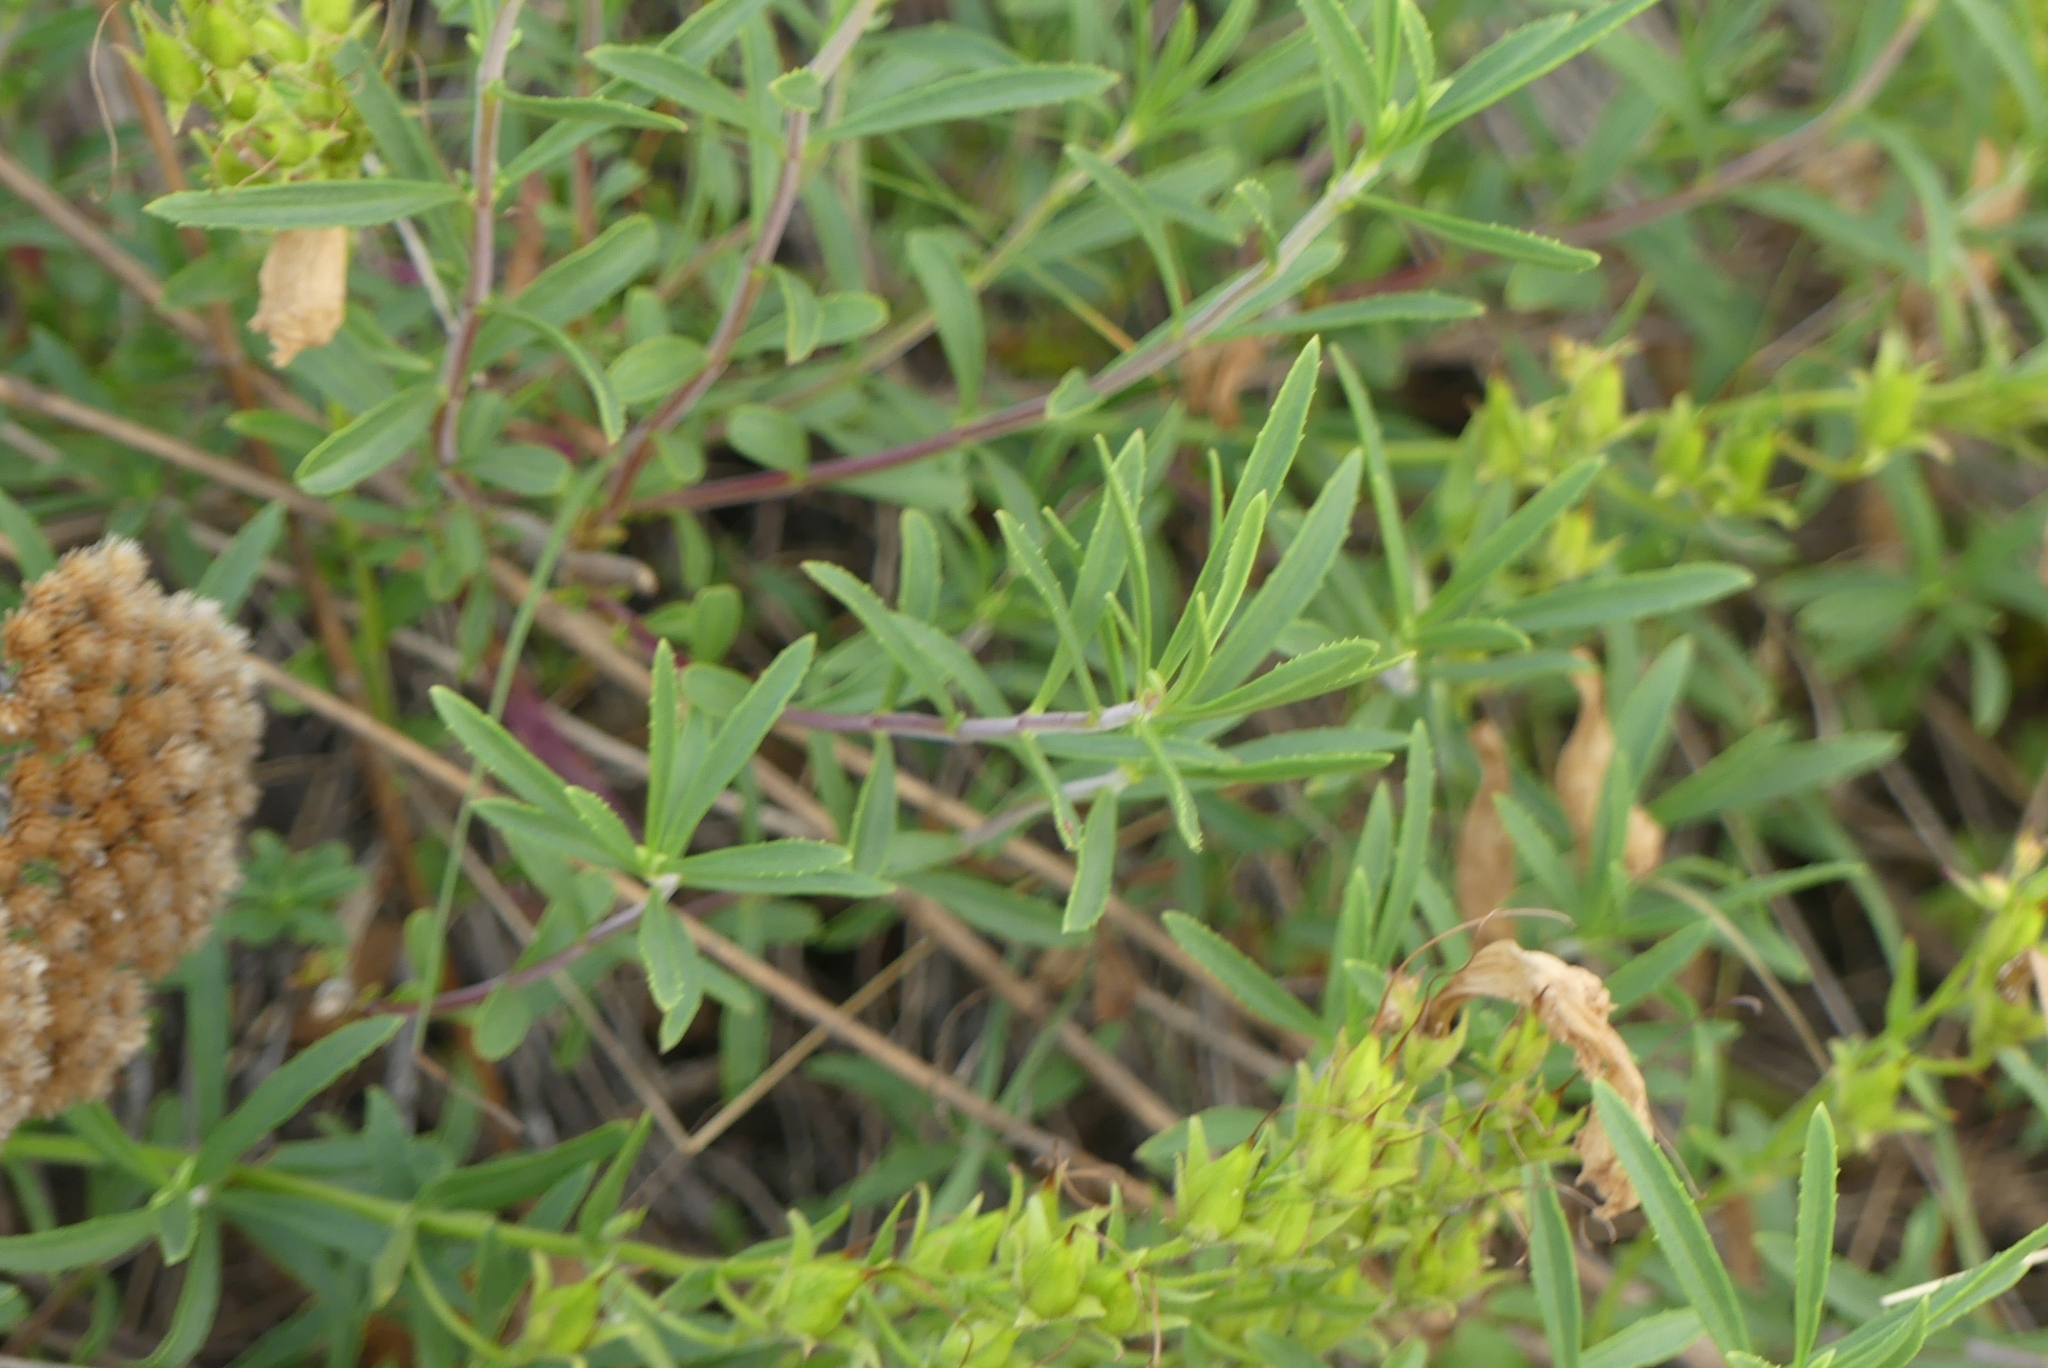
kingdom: Plantae
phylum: Tracheophyta
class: Magnoliopsida
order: Lamiales
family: Plantaginaceae
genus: Penstemon
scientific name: Penstemon fruticosus
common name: Bush penstemon
